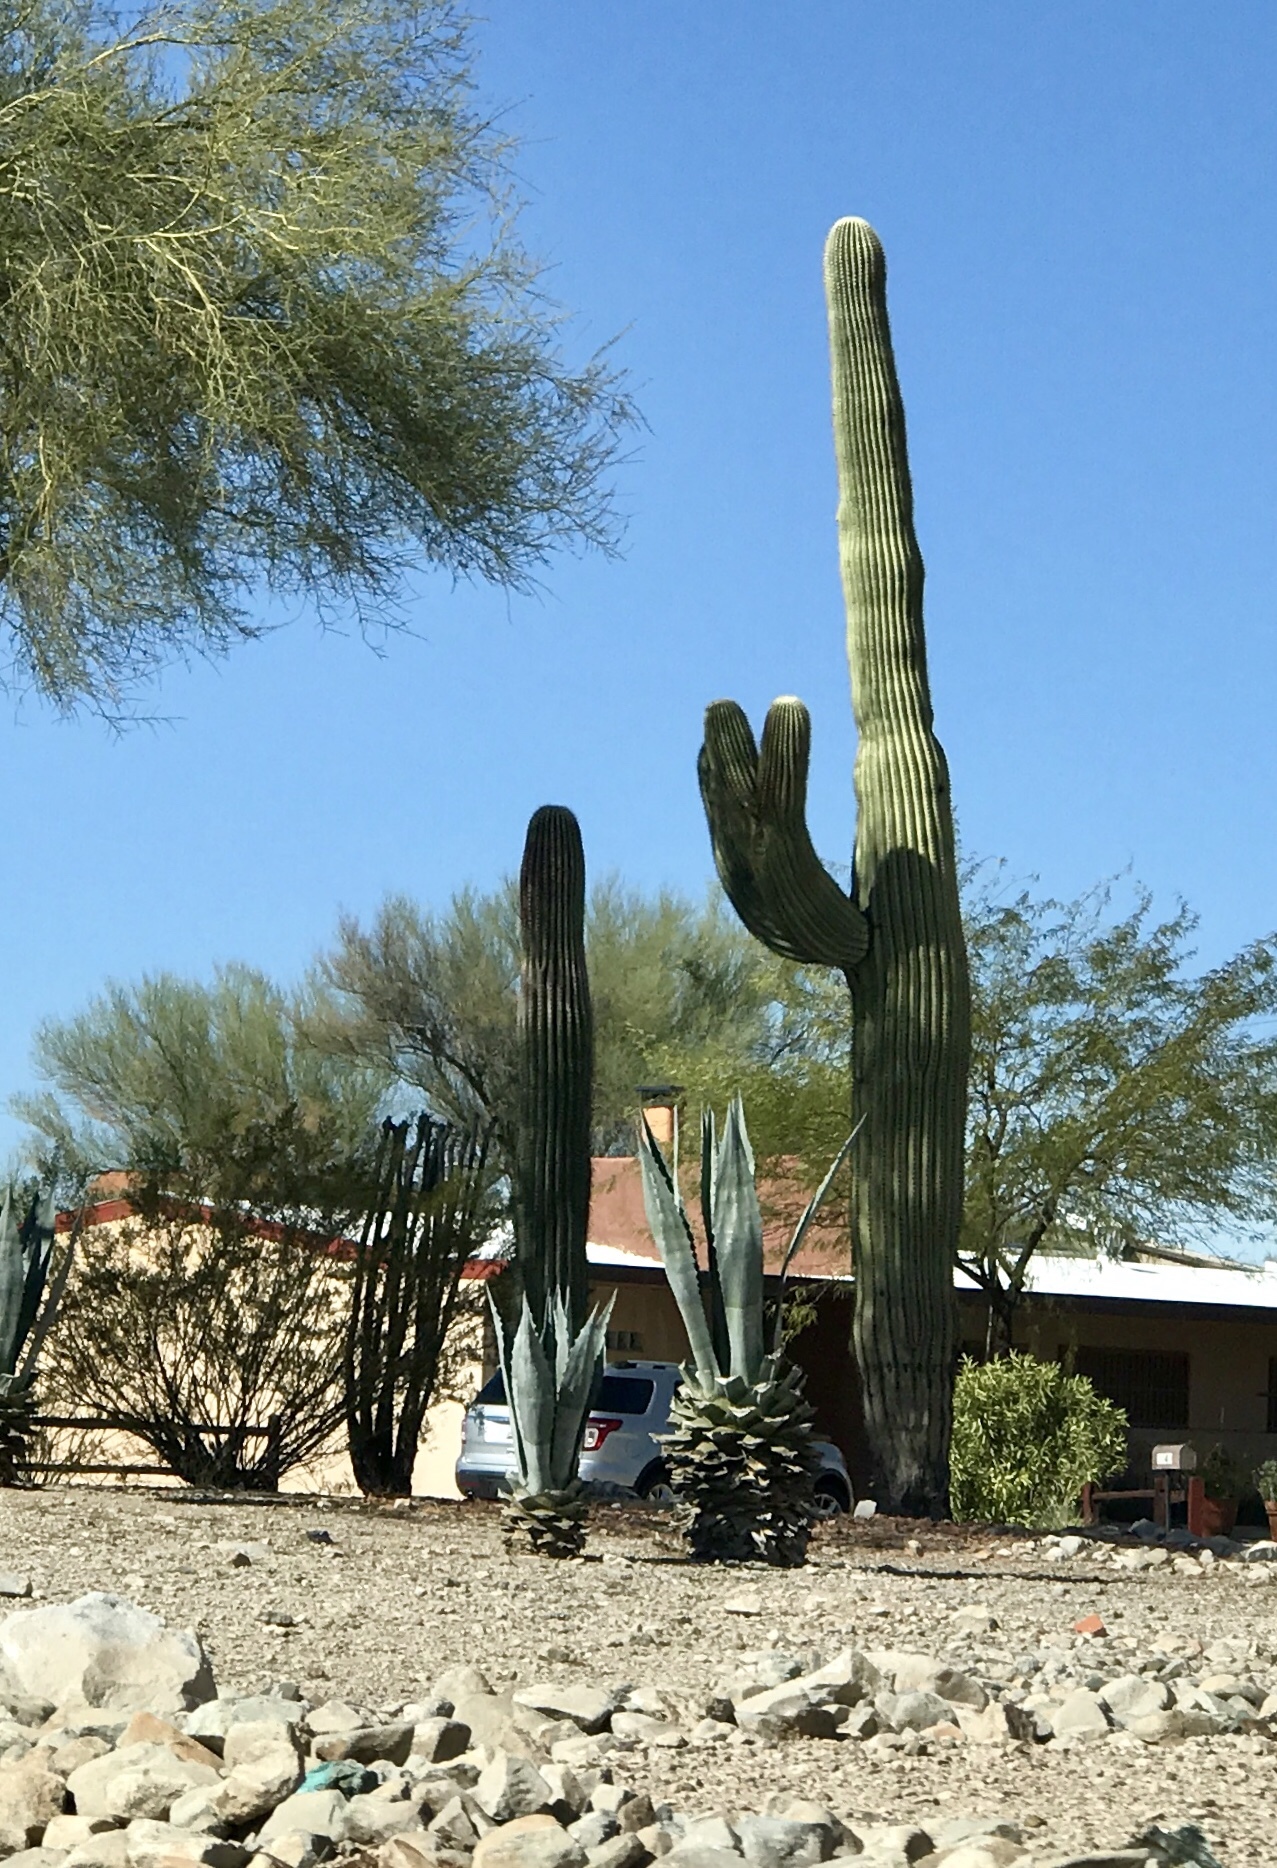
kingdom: Plantae
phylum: Tracheophyta
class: Magnoliopsida
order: Caryophyllales
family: Cactaceae
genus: Carnegiea
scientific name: Carnegiea gigantea
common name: Saguaro
